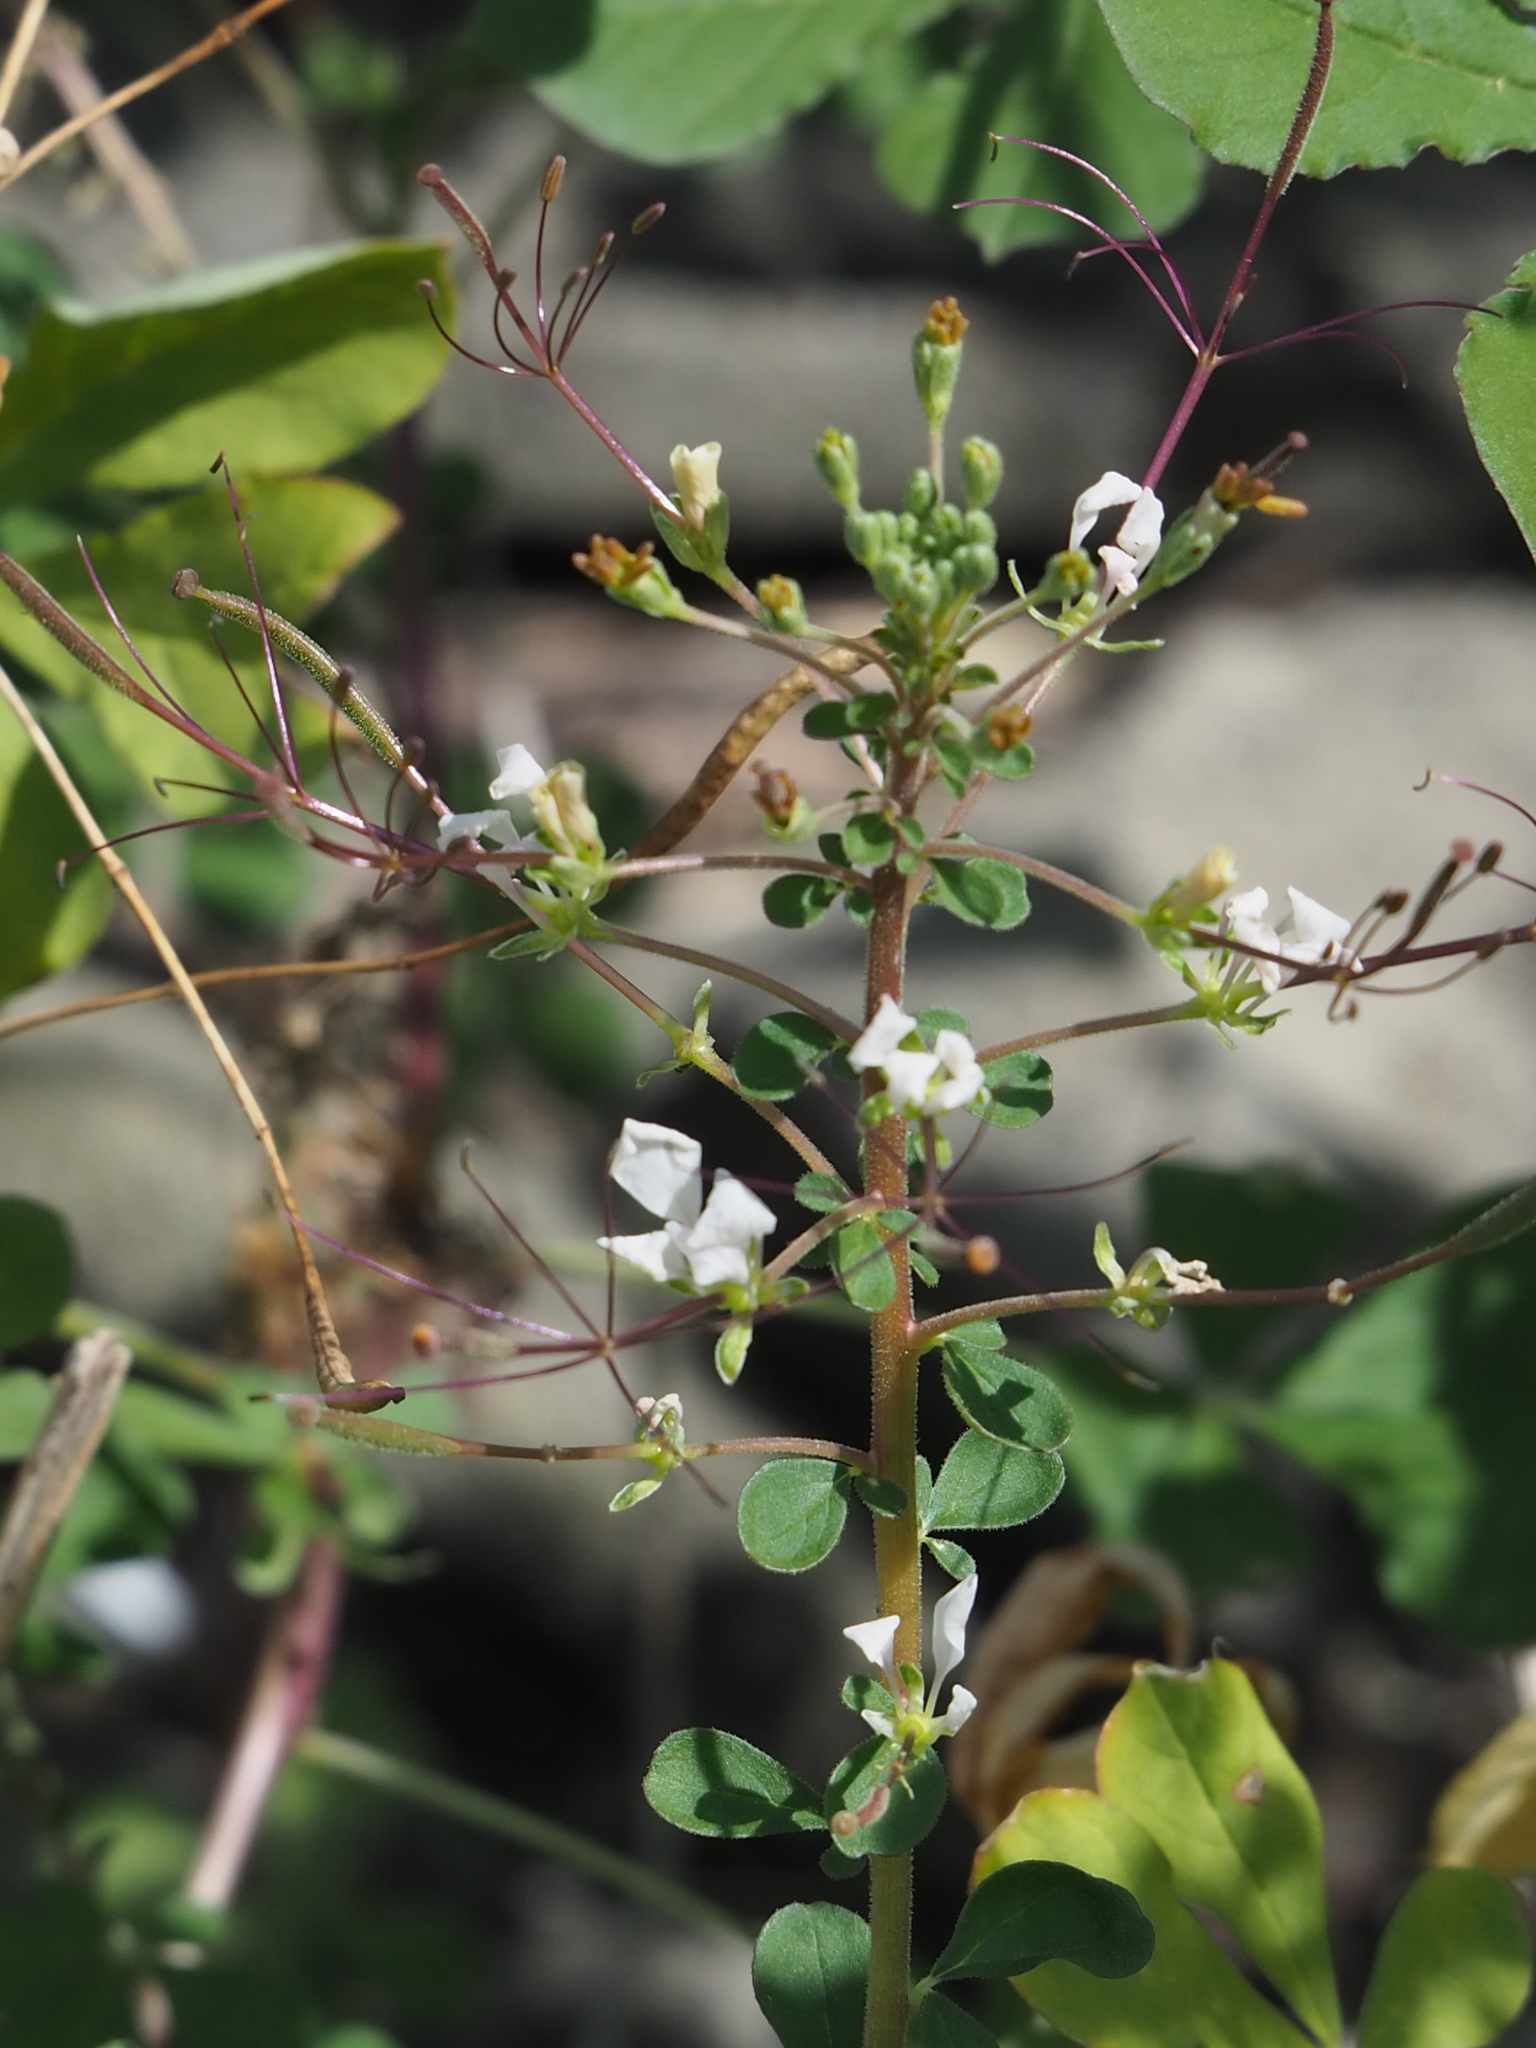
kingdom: Plantae
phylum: Tracheophyta
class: Magnoliopsida
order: Brassicales
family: Cleomaceae
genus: Gynandropsis
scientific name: Gynandropsis gynandra
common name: Spiderwisp
